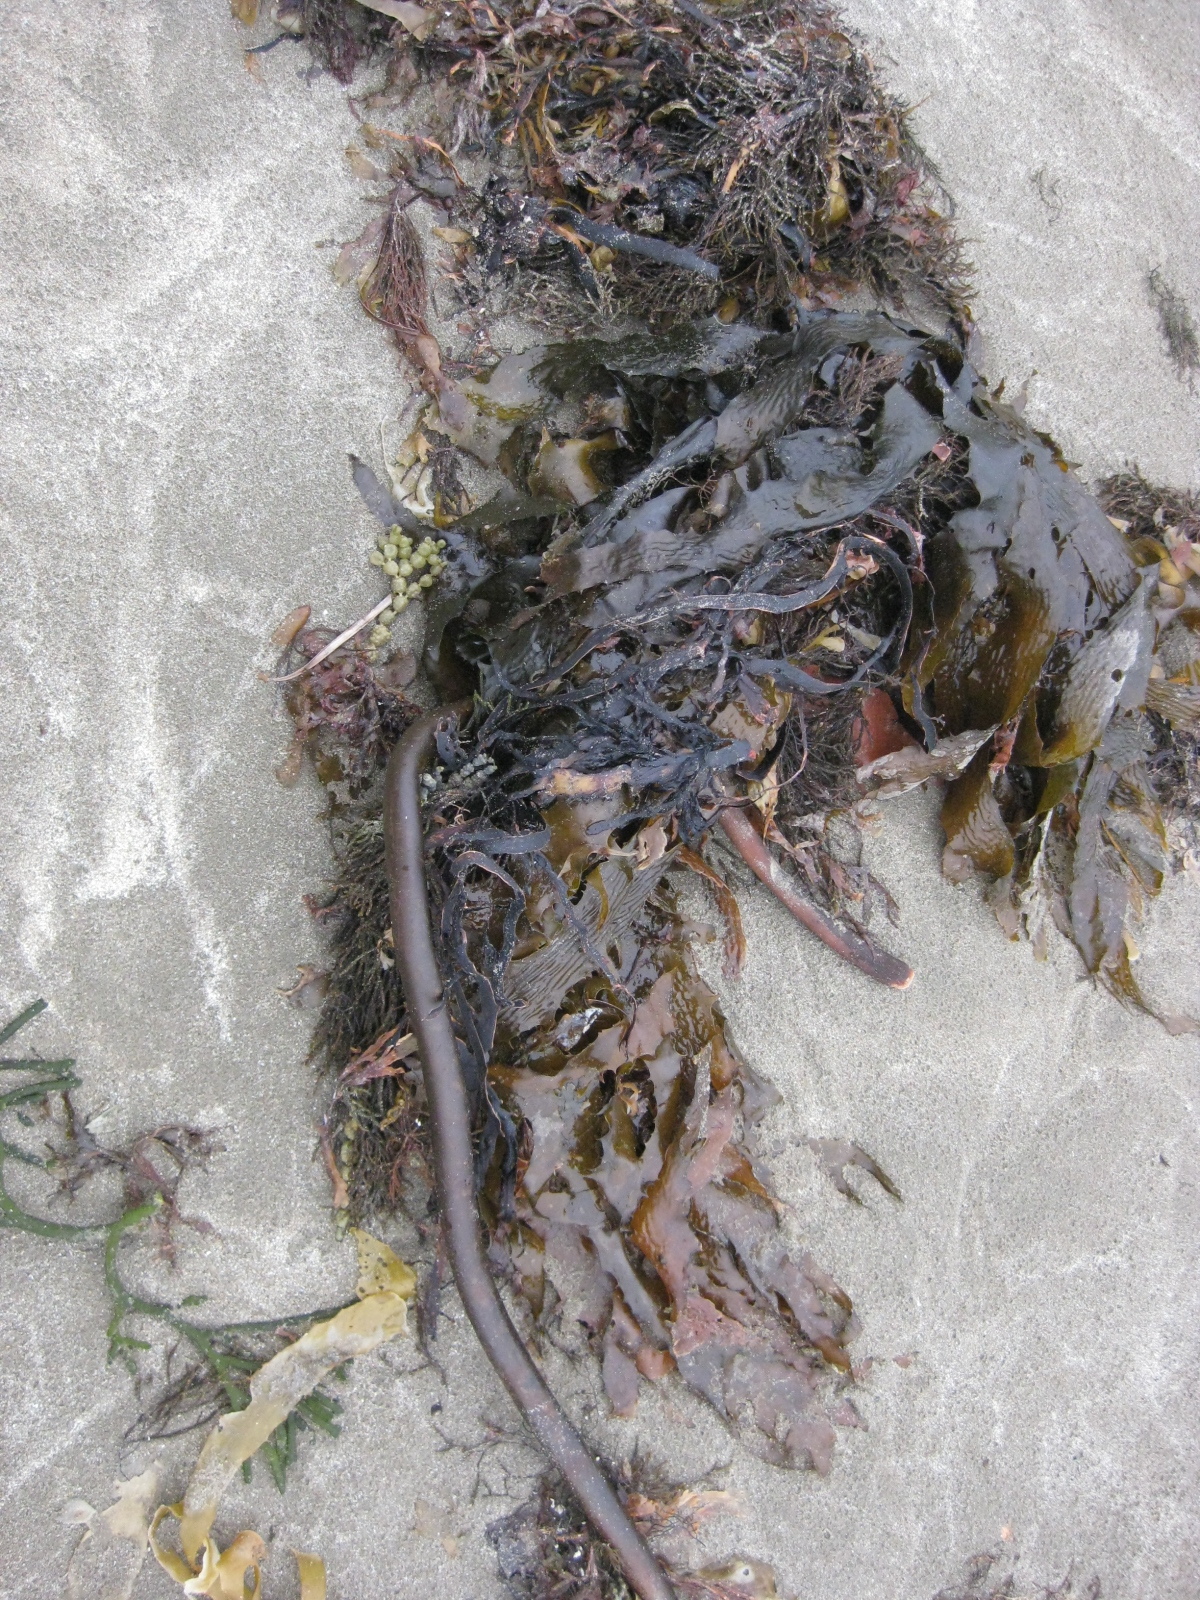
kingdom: Chromista
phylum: Ochrophyta
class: Phaeophyceae
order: Fucales
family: Hormosiraceae
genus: Hormosira
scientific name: Hormosira banksii
